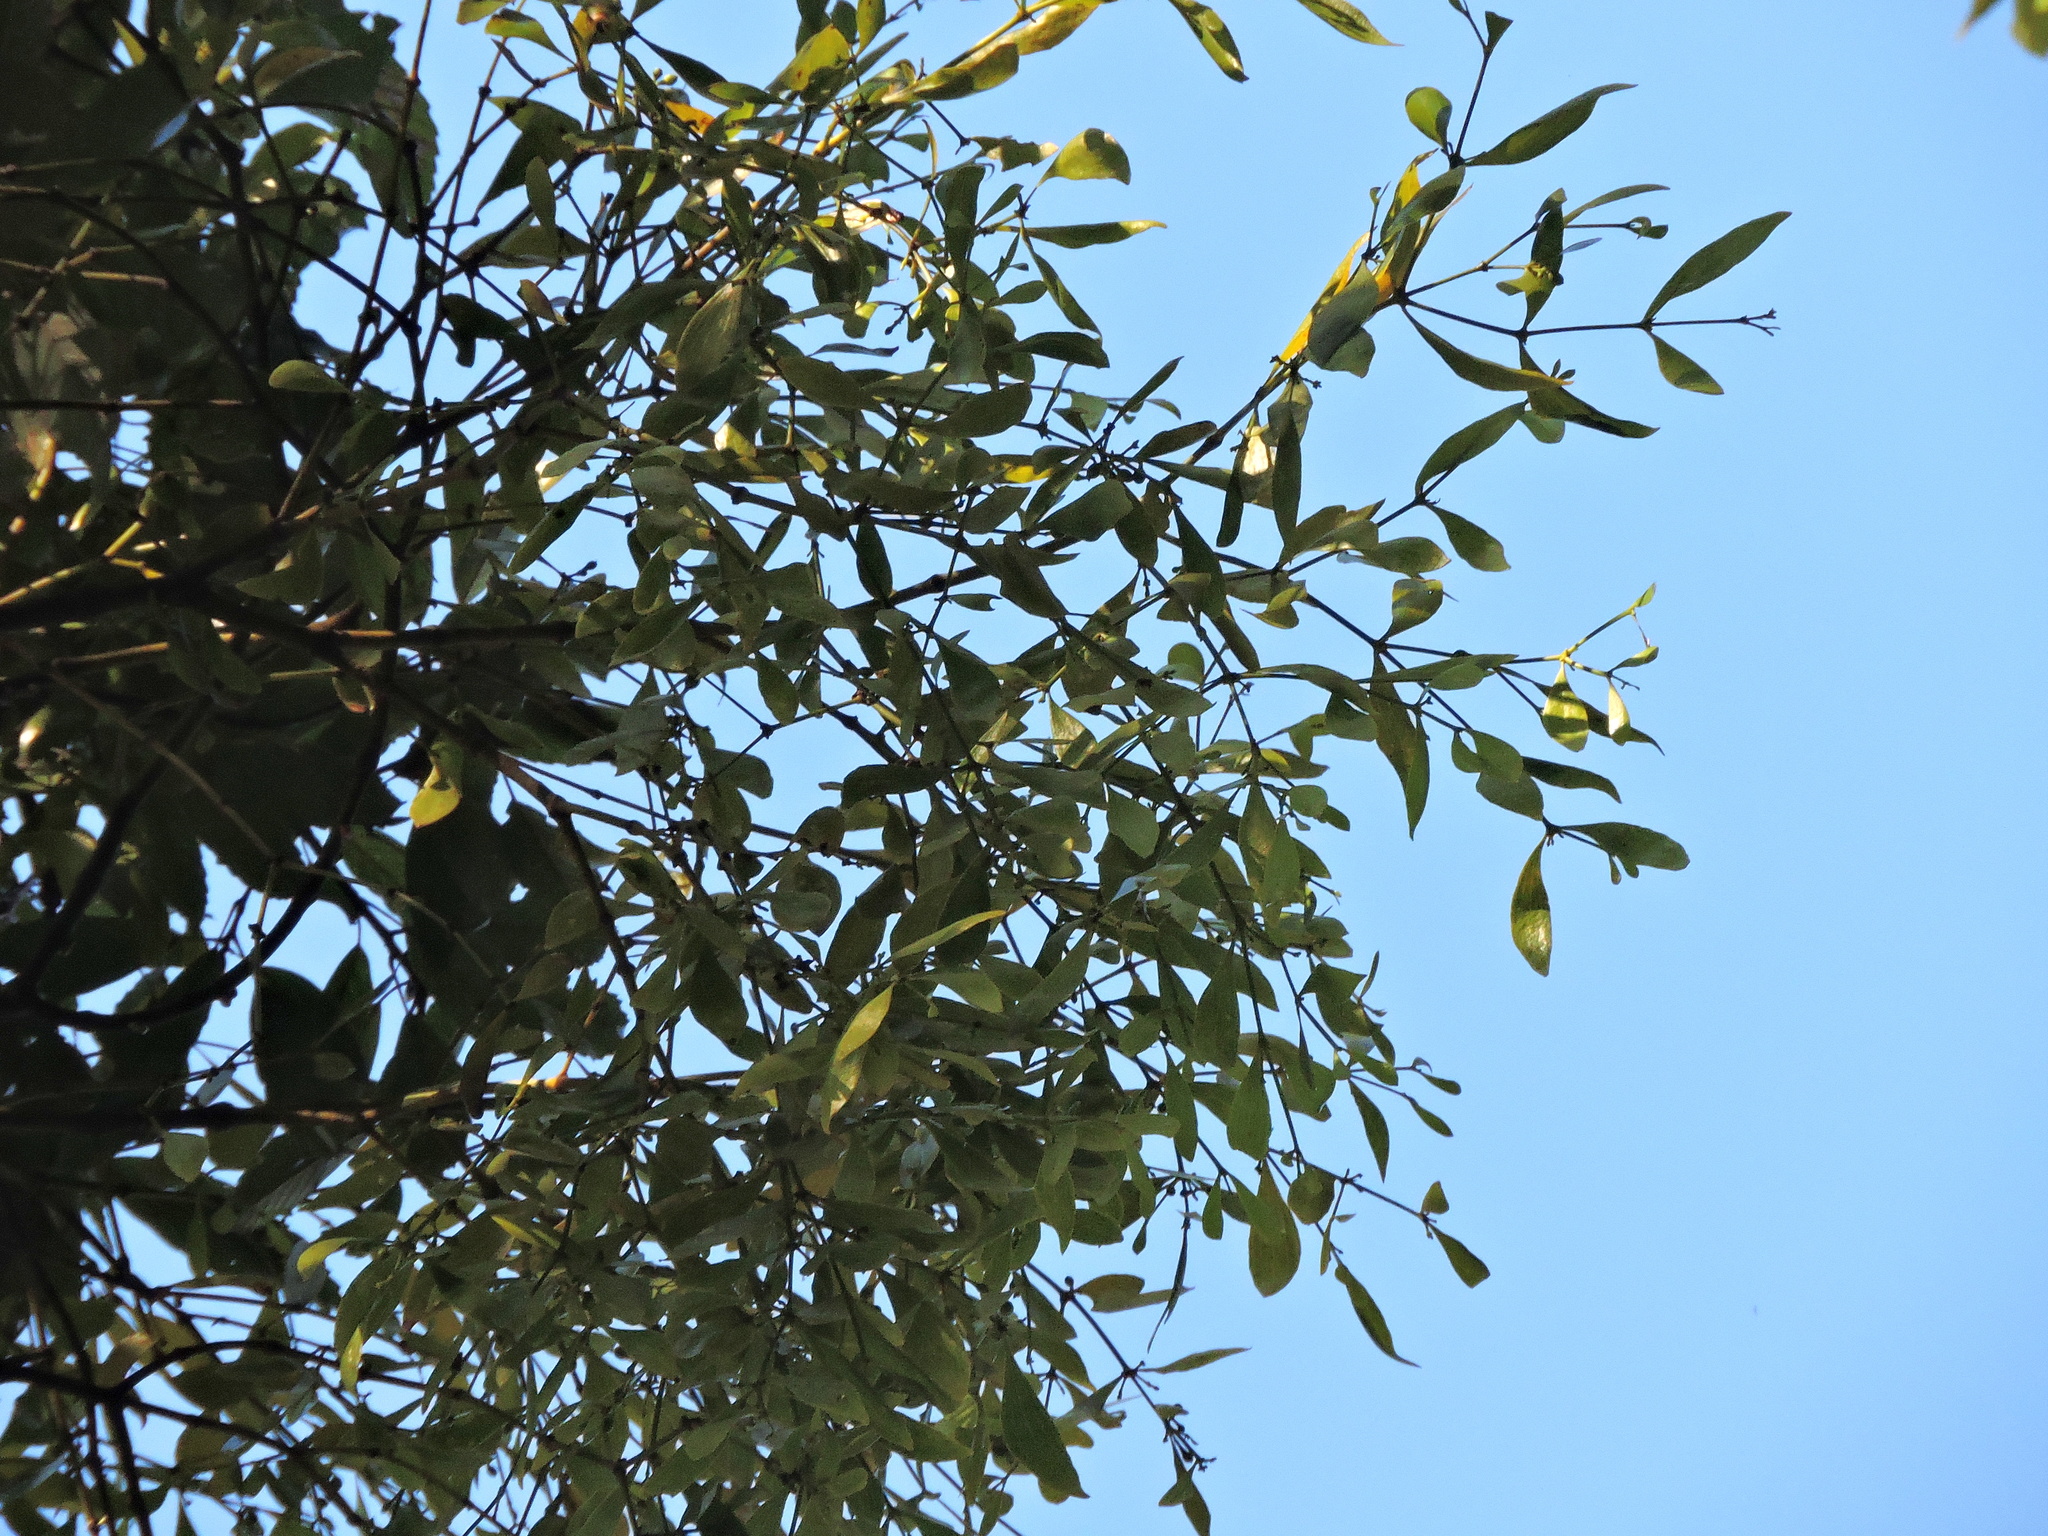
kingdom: Plantae
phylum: Tracheophyta
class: Magnoliopsida
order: Santalales
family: Viscaceae
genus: Viscum
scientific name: Viscum multinerve
